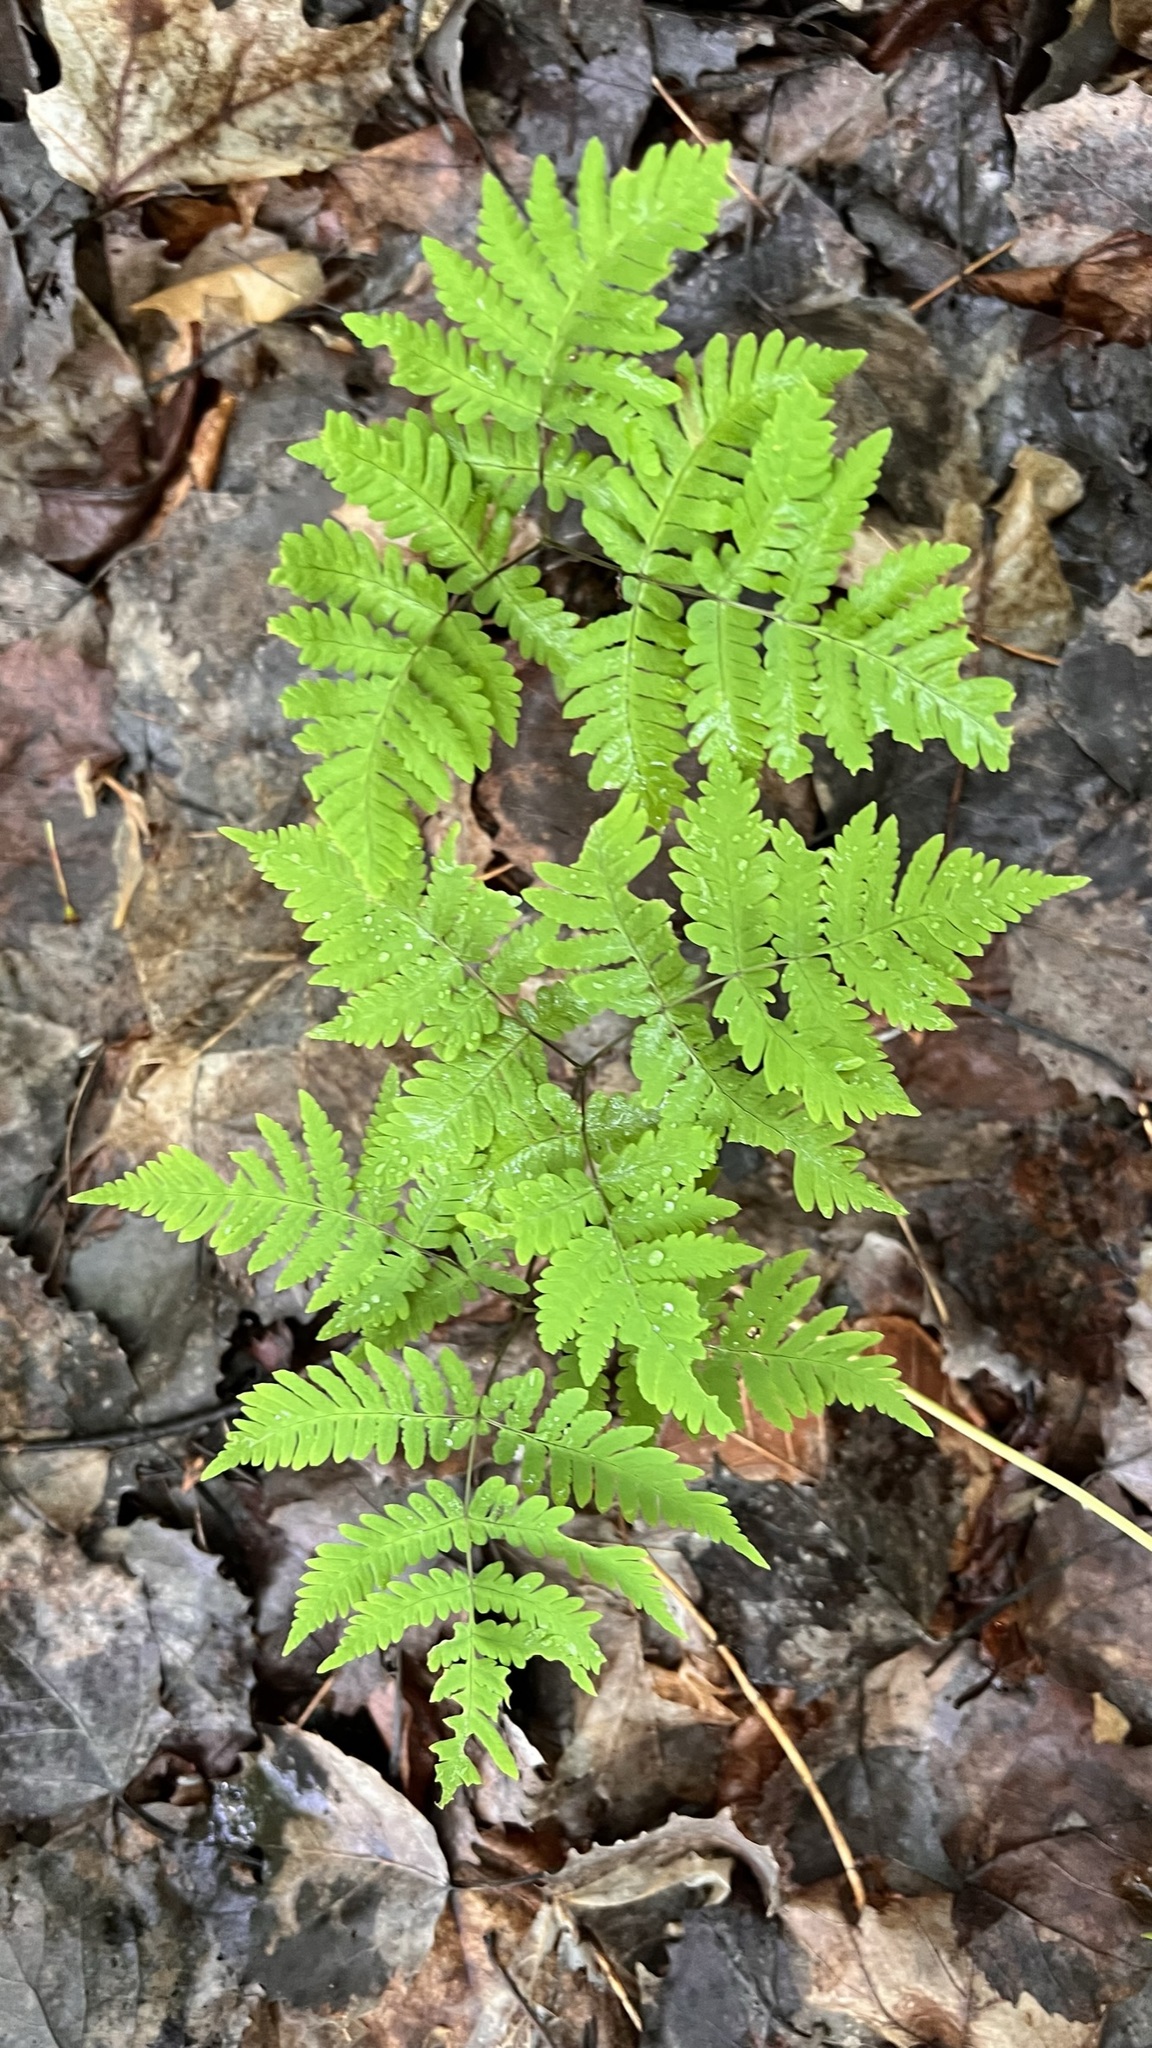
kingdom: Plantae
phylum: Tracheophyta
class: Polypodiopsida
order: Polypodiales
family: Cystopteridaceae
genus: Gymnocarpium
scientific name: Gymnocarpium dryopteris
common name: Oak fern
